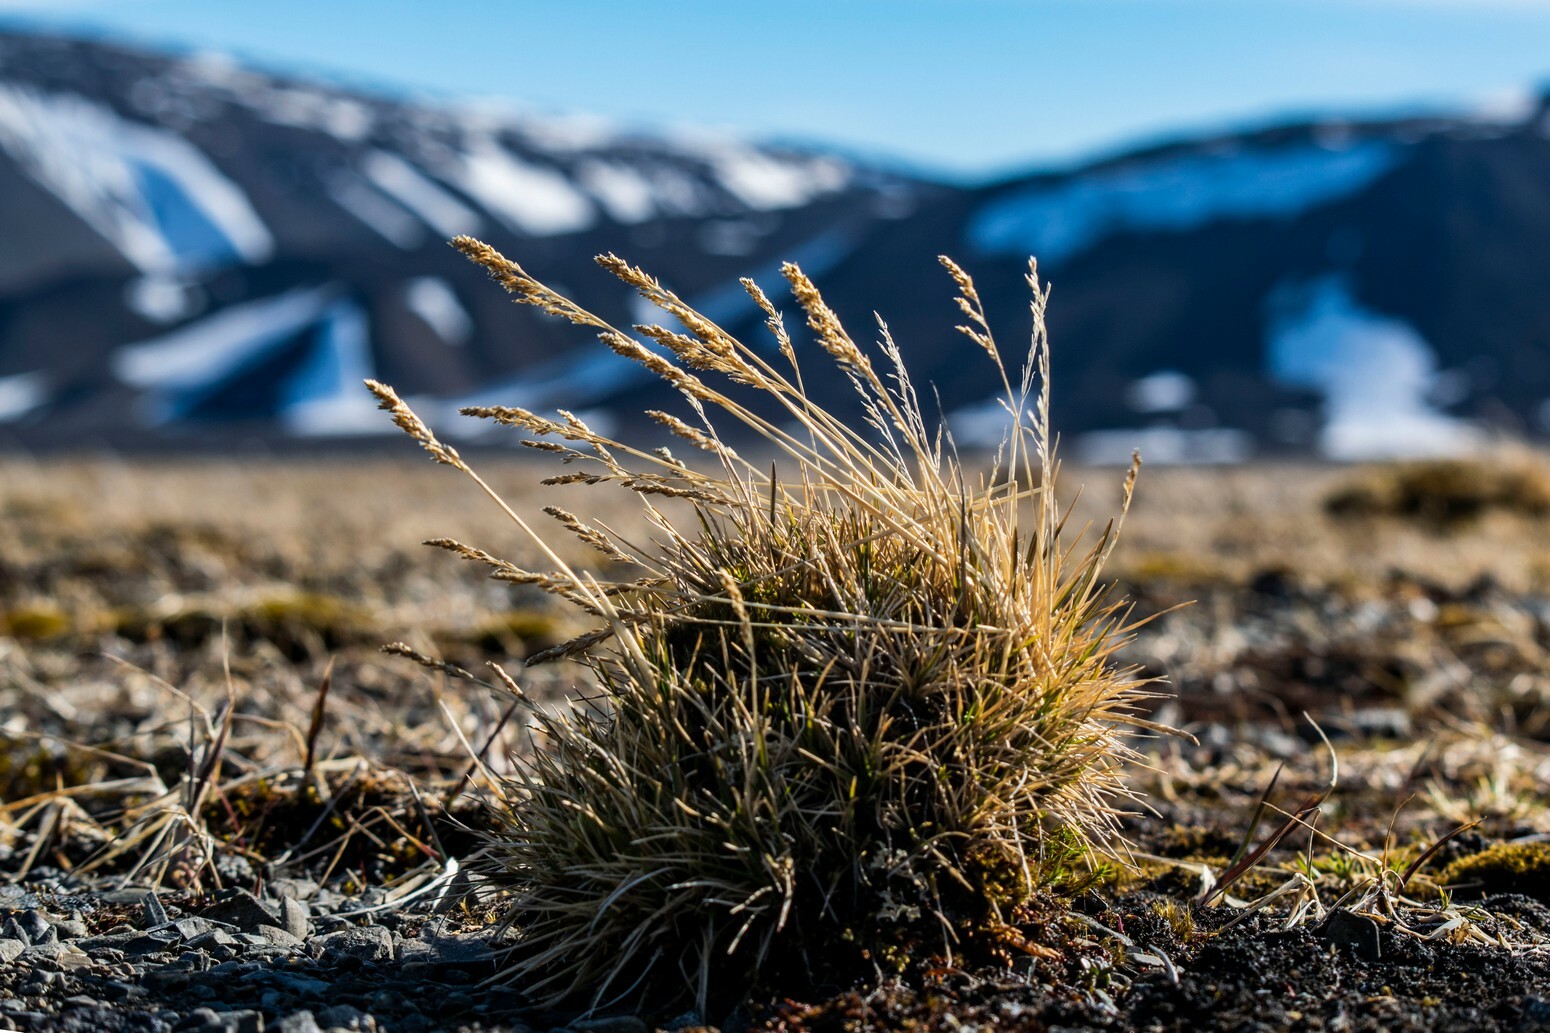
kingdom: Plantae
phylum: Tracheophyta
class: Liliopsida
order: Poales
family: Poaceae
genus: Deschampsia
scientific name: Deschampsia cespitosa
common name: Tufted hair-grass
